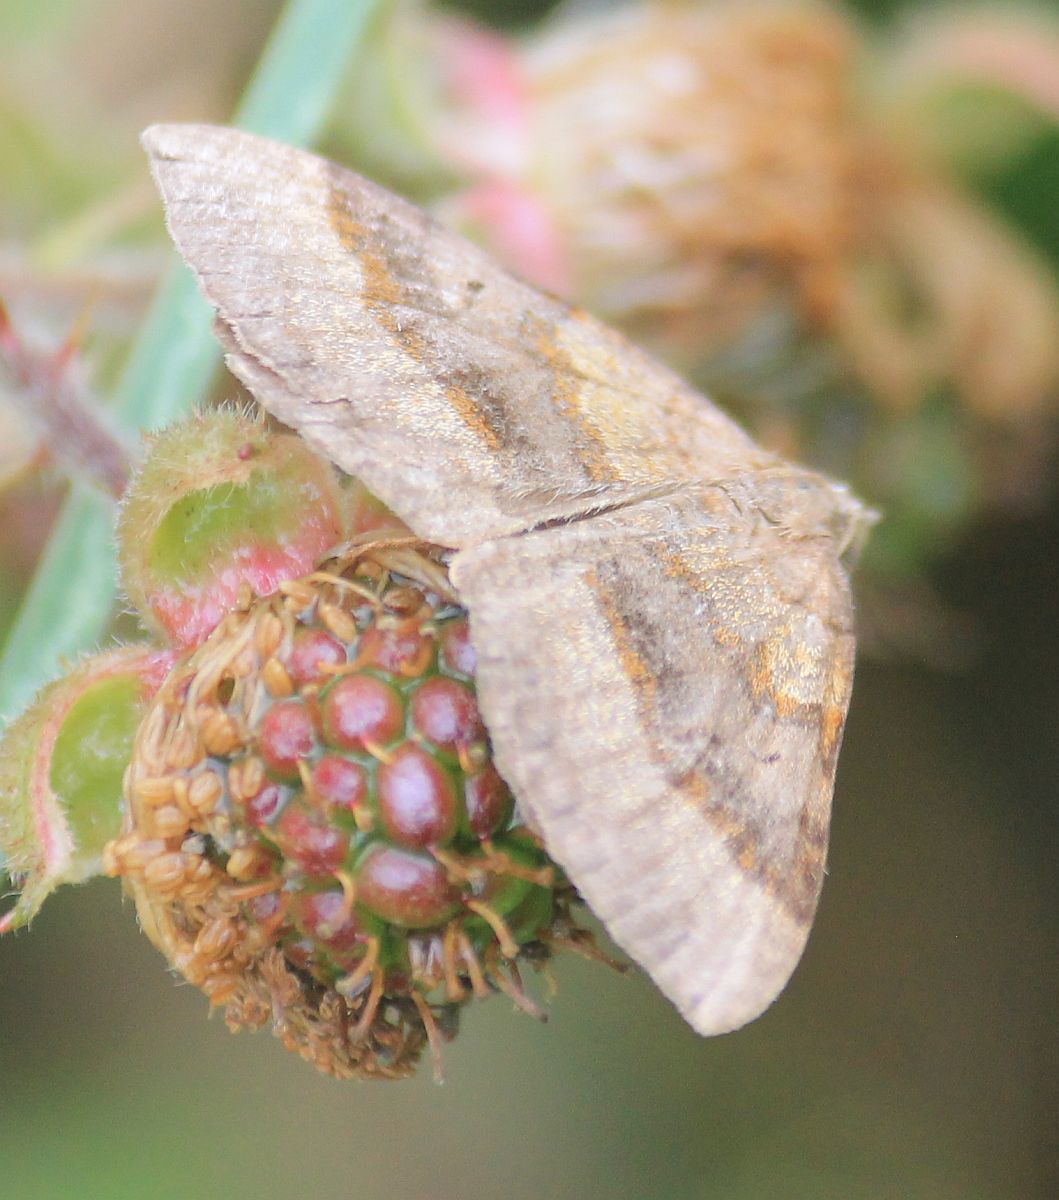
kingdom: Animalia
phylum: Arthropoda
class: Insecta
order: Lepidoptera
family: Geometridae
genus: Scotopteryx
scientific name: Scotopteryx chenopodiata
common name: Shaded broad-bar
